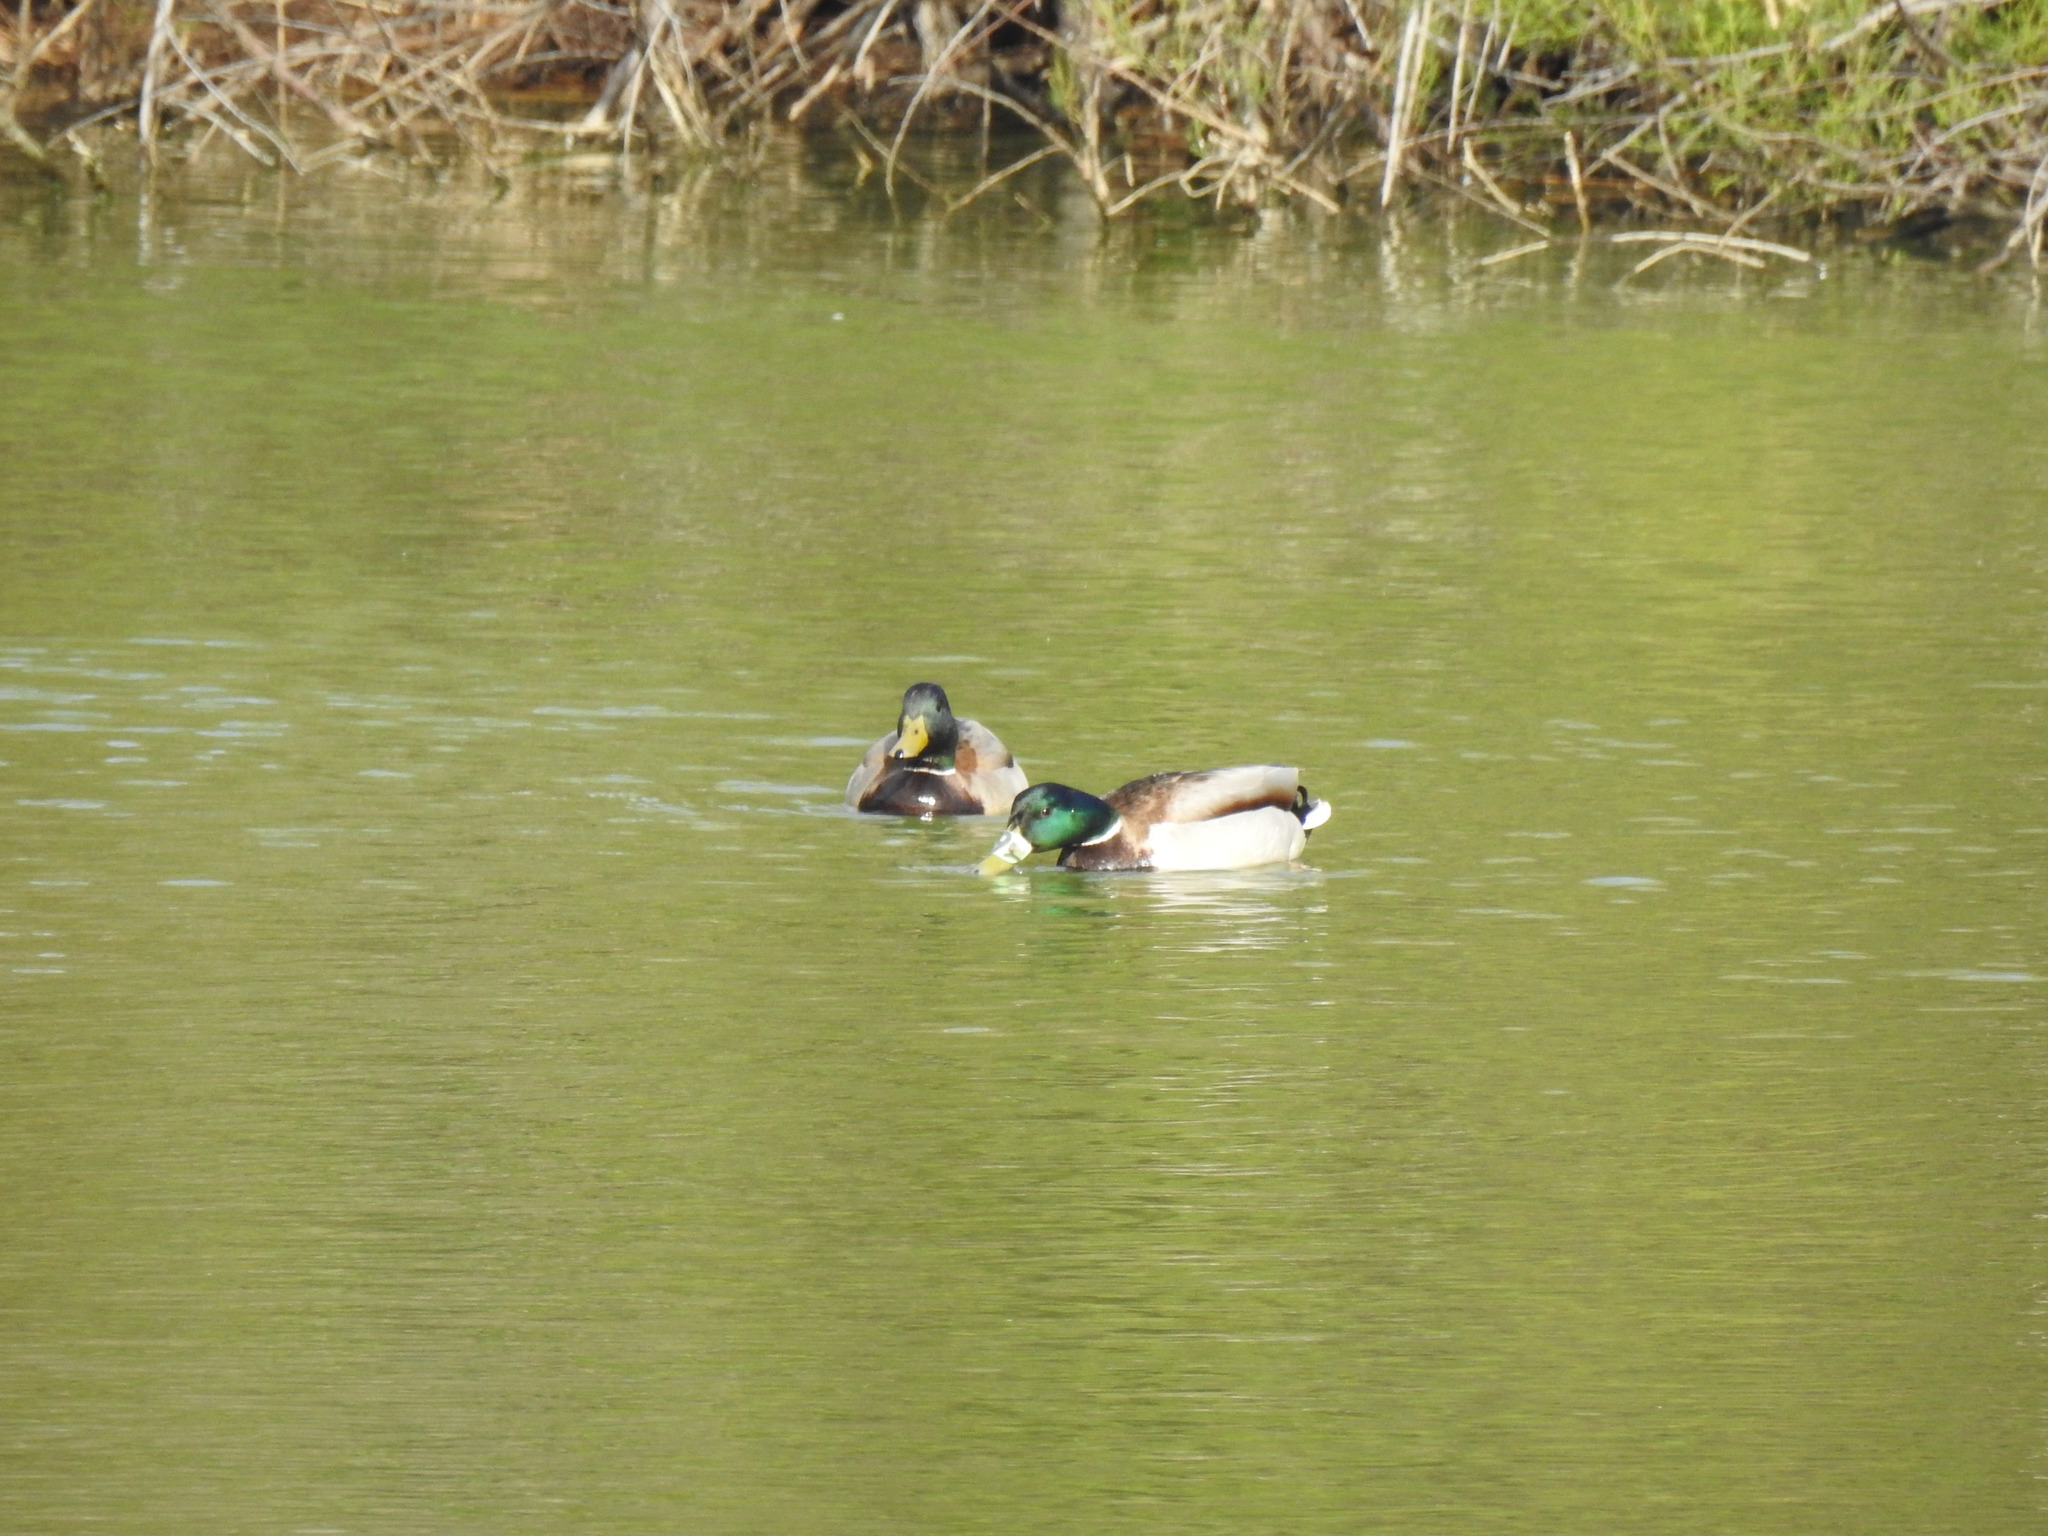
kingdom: Animalia
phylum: Chordata
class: Aves
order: Anseriformes
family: Anatidae
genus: Anas
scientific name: Anas platyrhynchos
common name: Mallard
